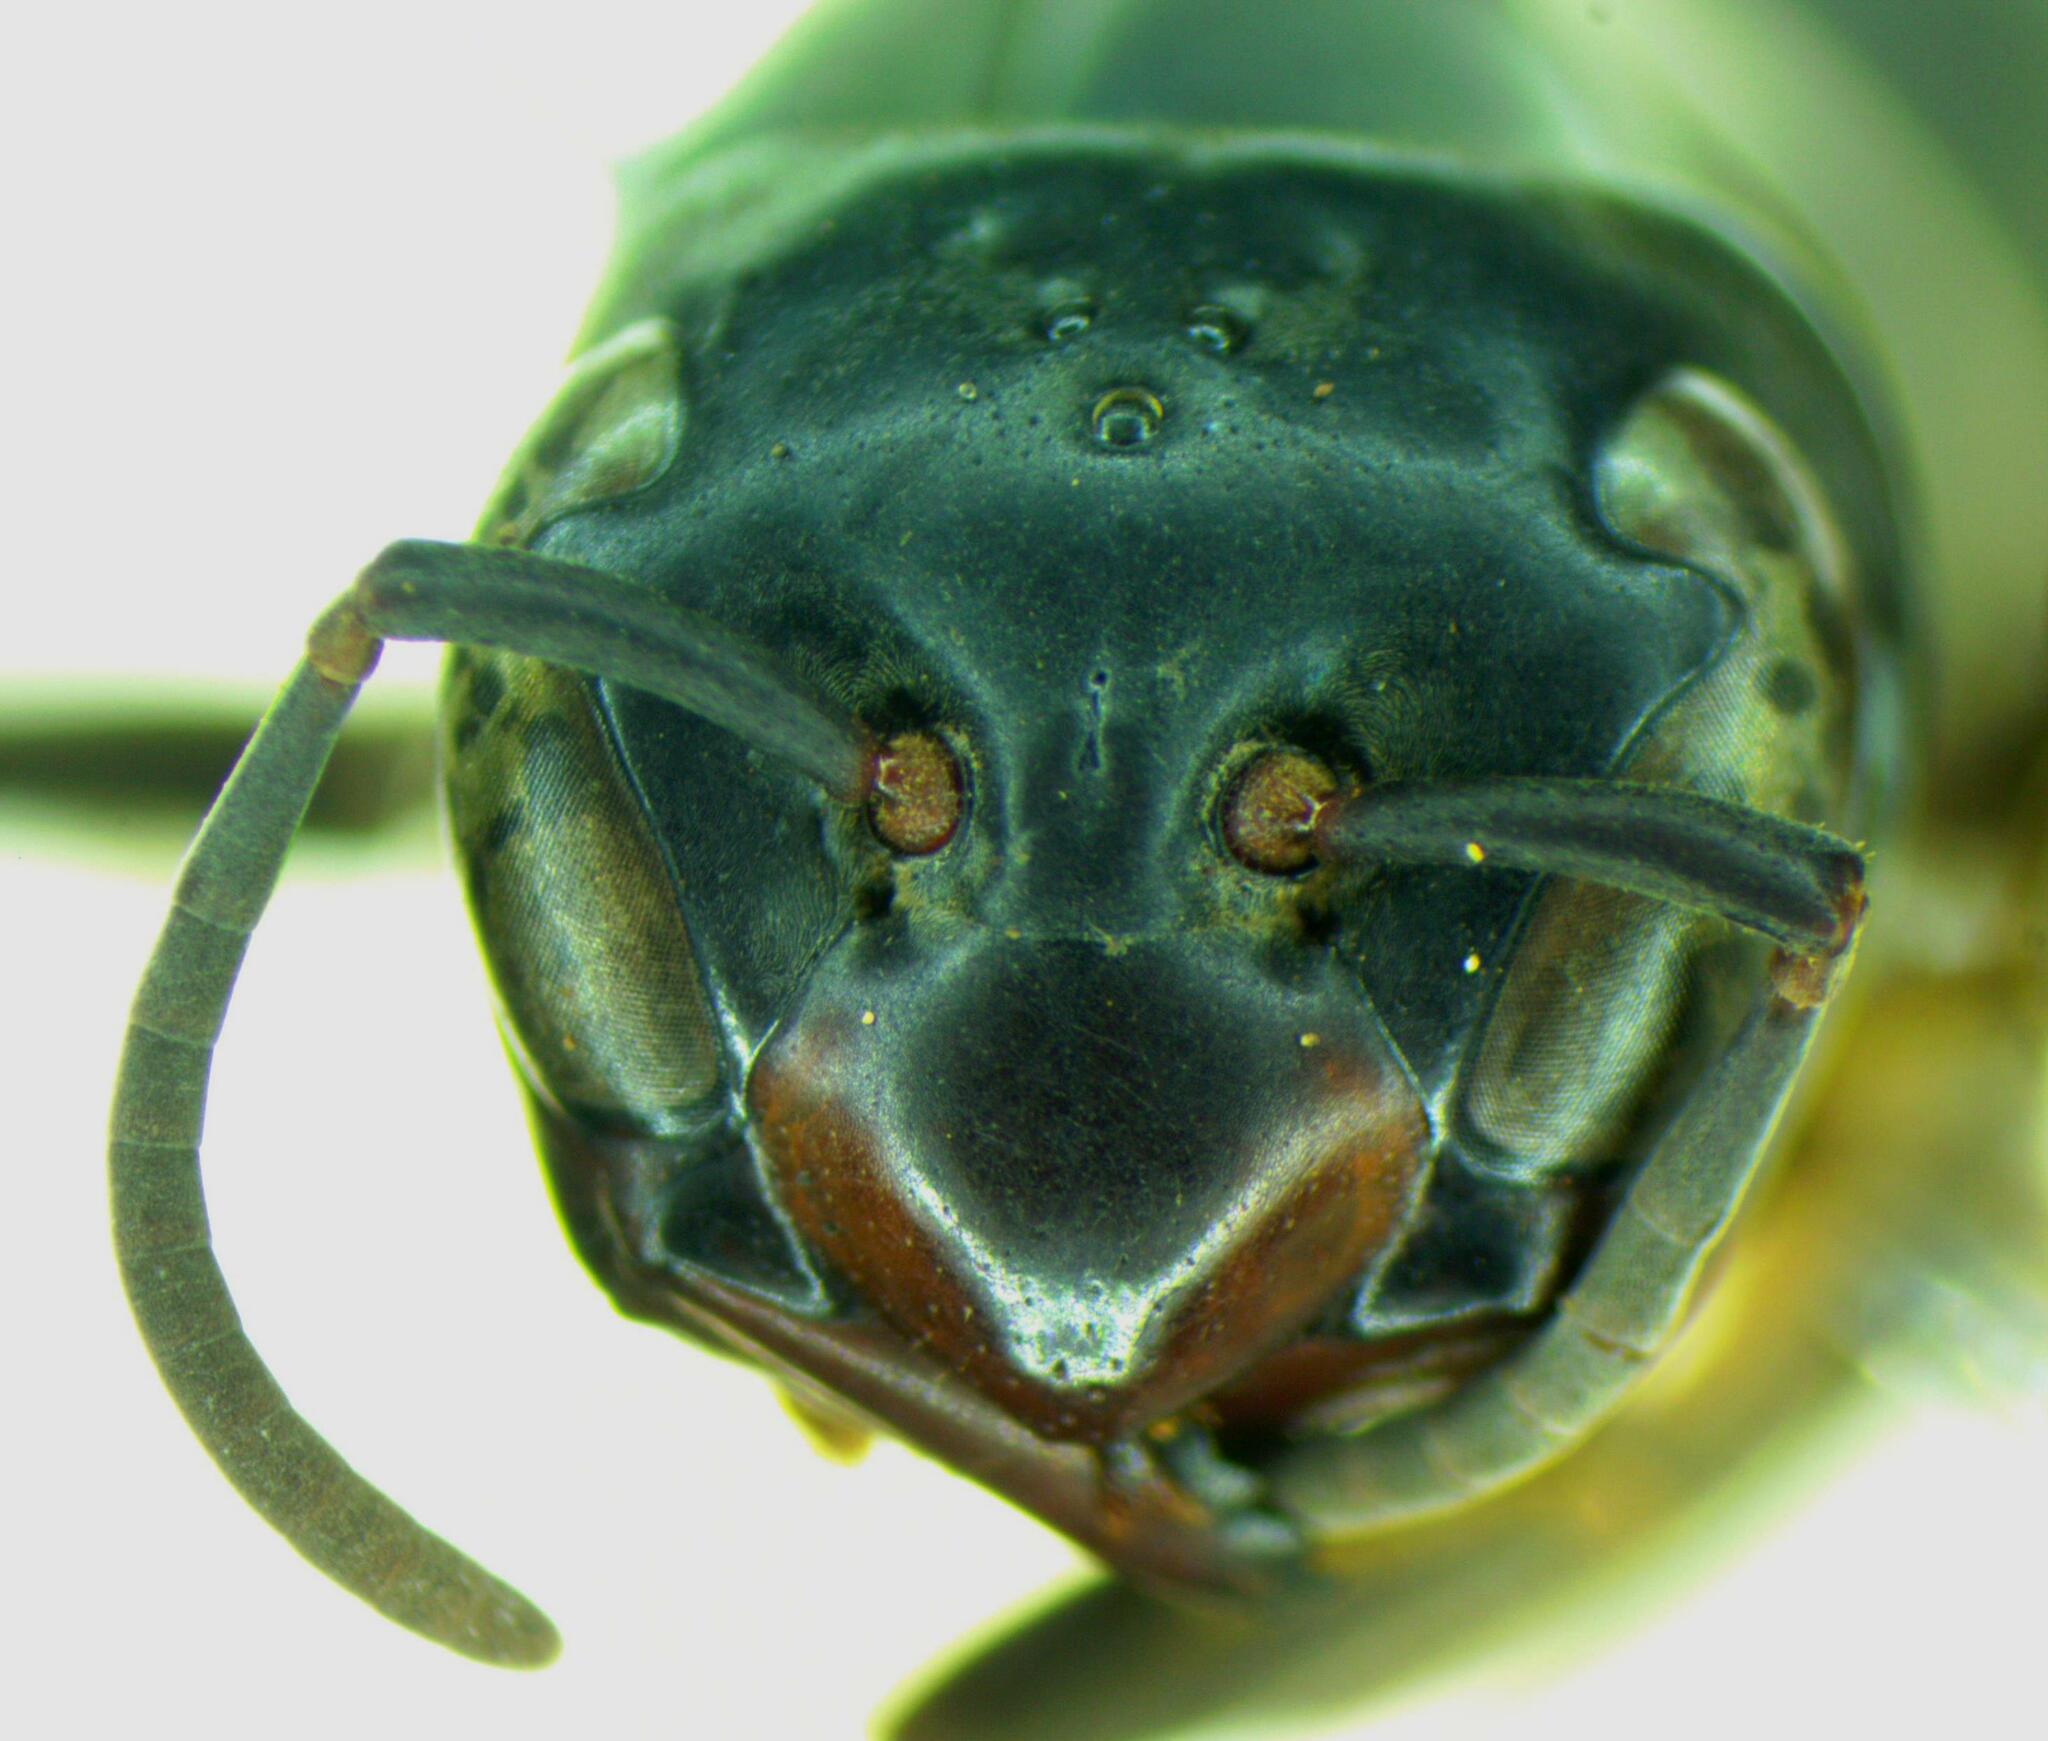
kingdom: Animalia
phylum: Arthropoda
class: Insecta
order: Hymenoptera
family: Vespidae
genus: Synoeca
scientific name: Synoeca septentrionalis
